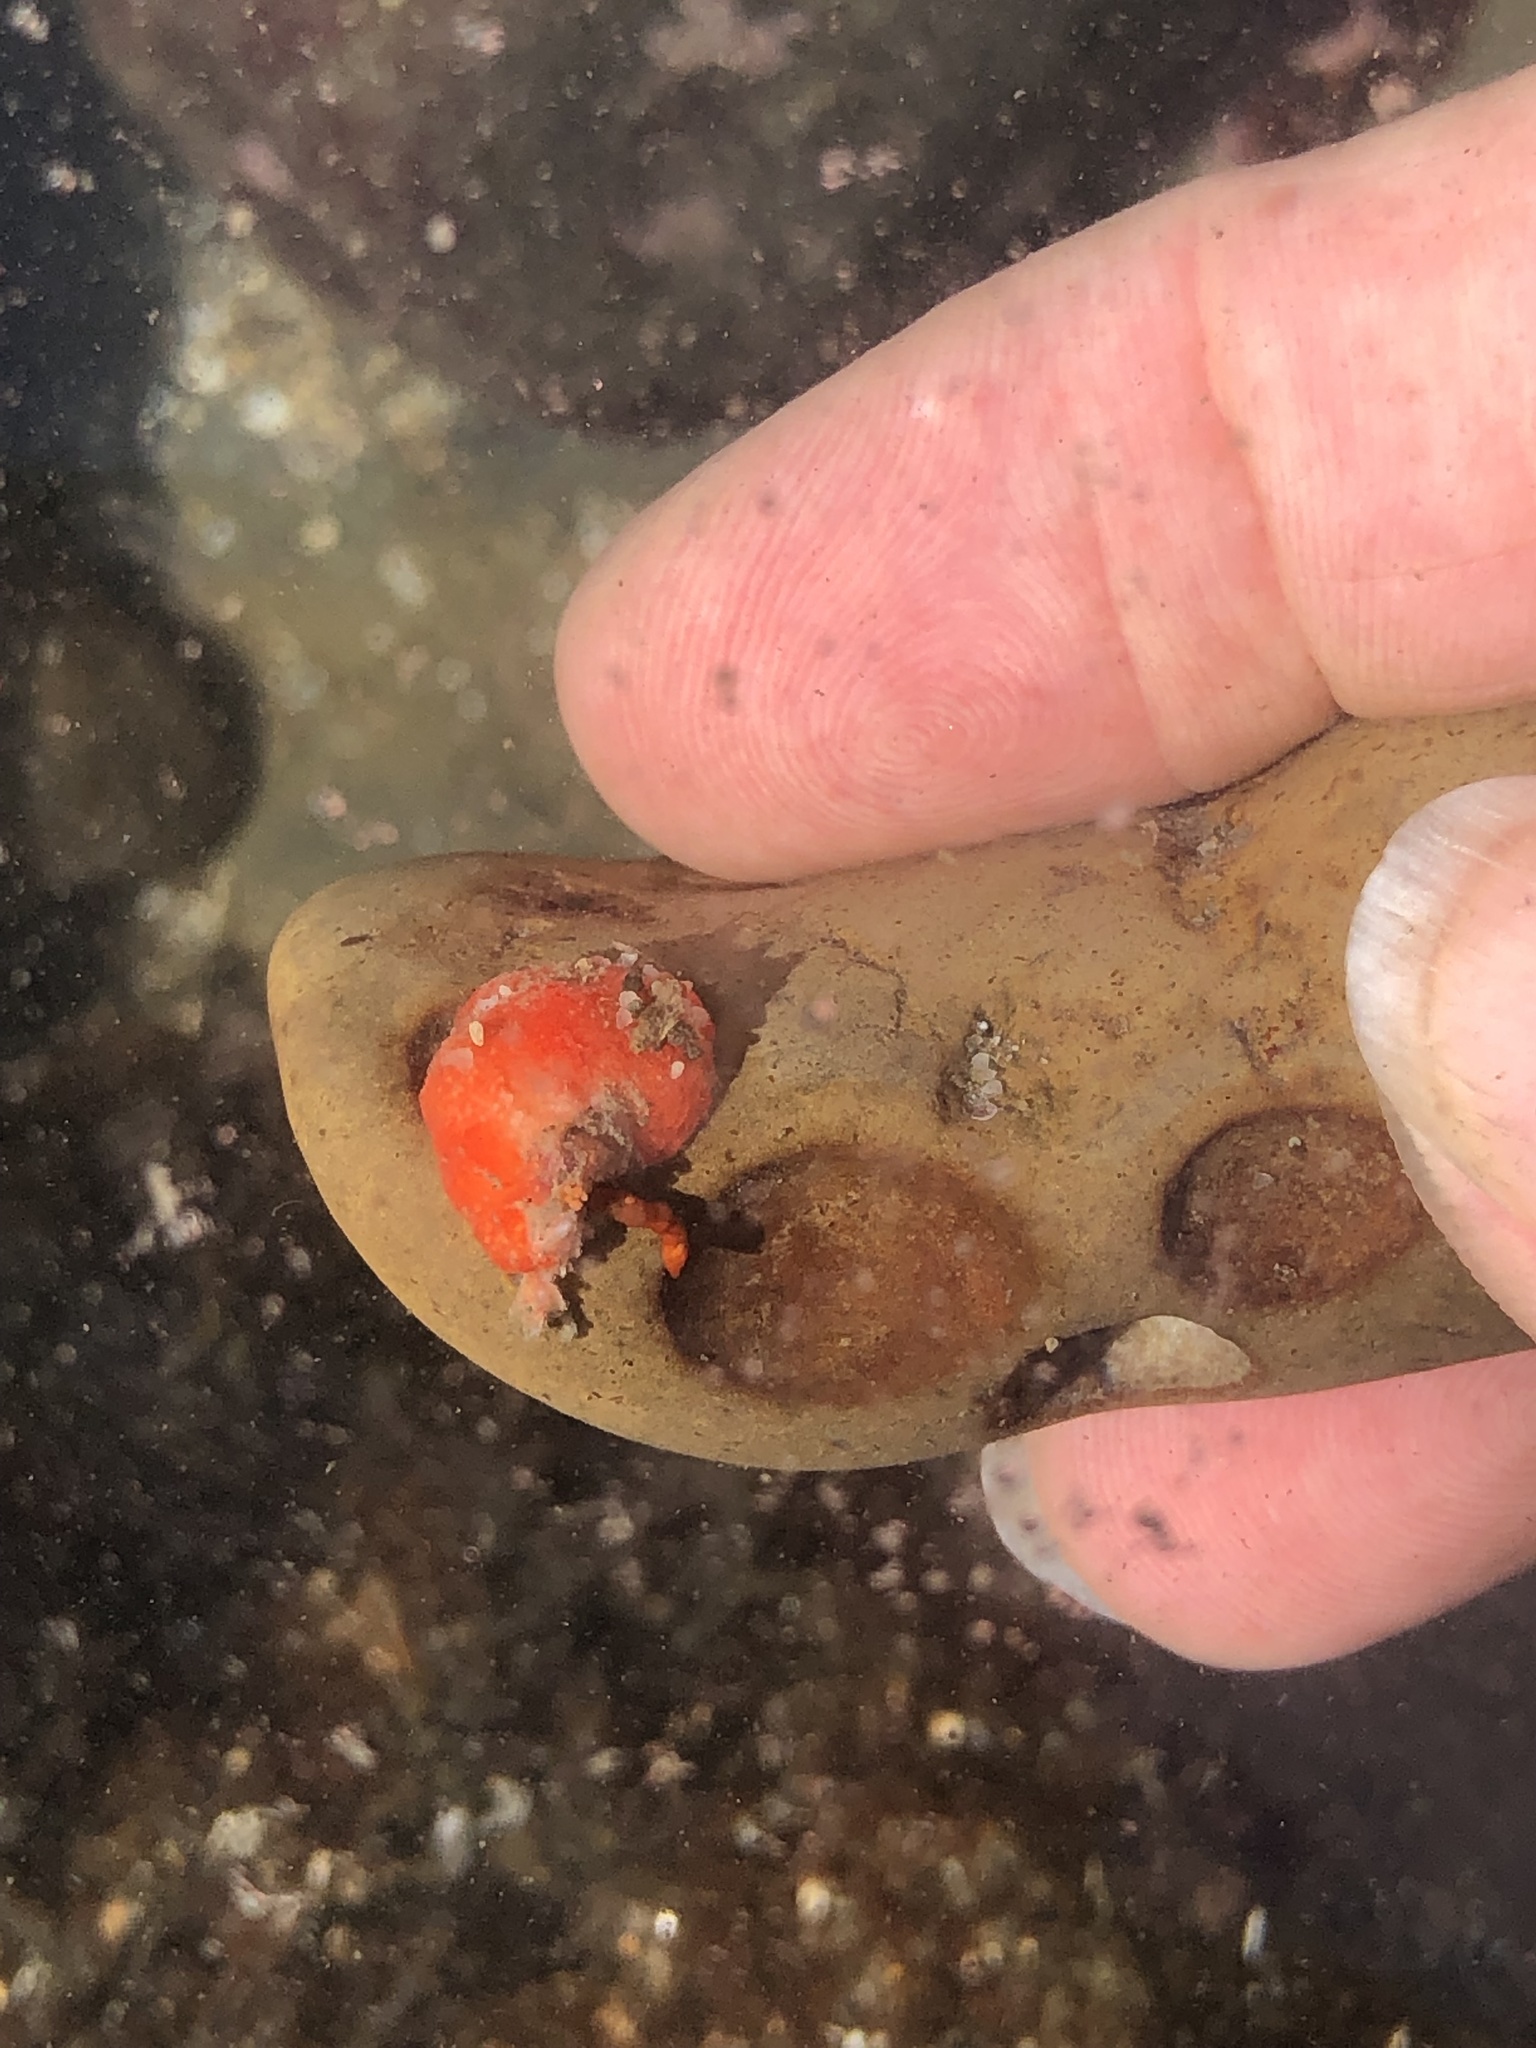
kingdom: Animalia
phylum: Echinodermata
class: Holothuroidea
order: Dendrochirotida
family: Psolidae
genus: Lissothuria
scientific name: Lissothuria nutriens
